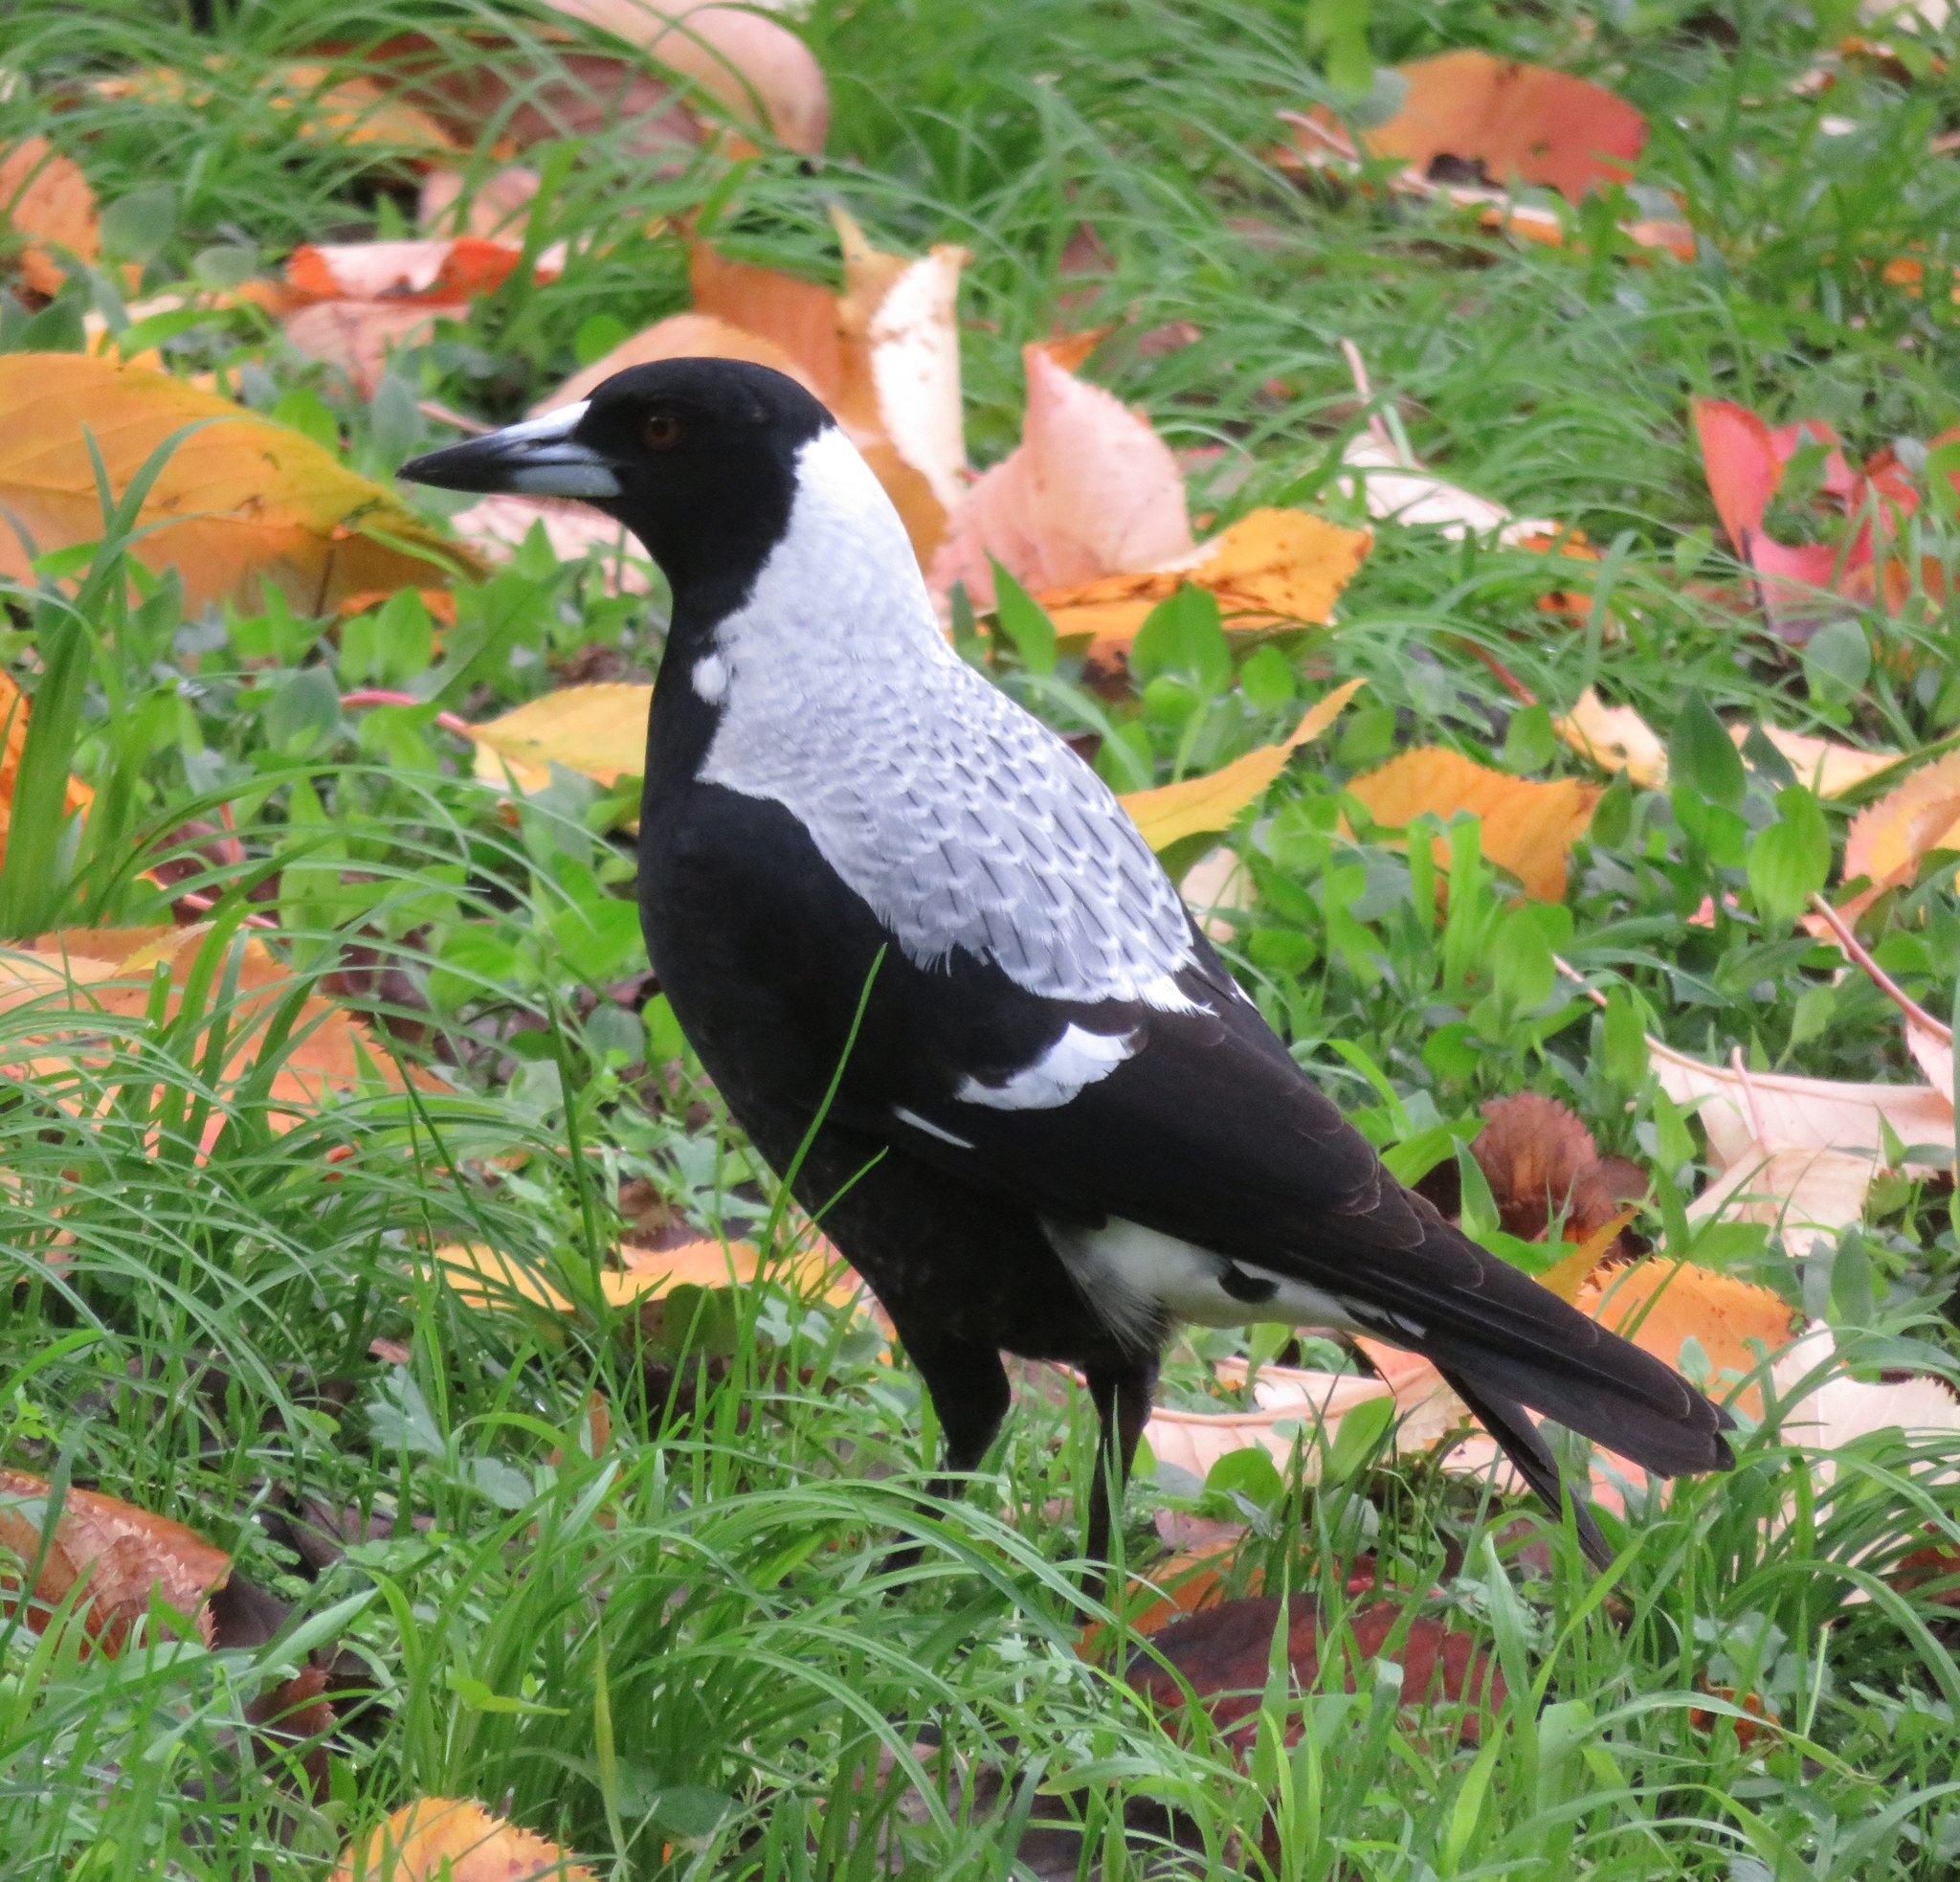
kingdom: Animalia
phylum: Chordata
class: Aves
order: Passeriformes
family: Cracticidae
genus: Gymnorhina
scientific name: Gymnorhina tibicen
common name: Australian magpie
